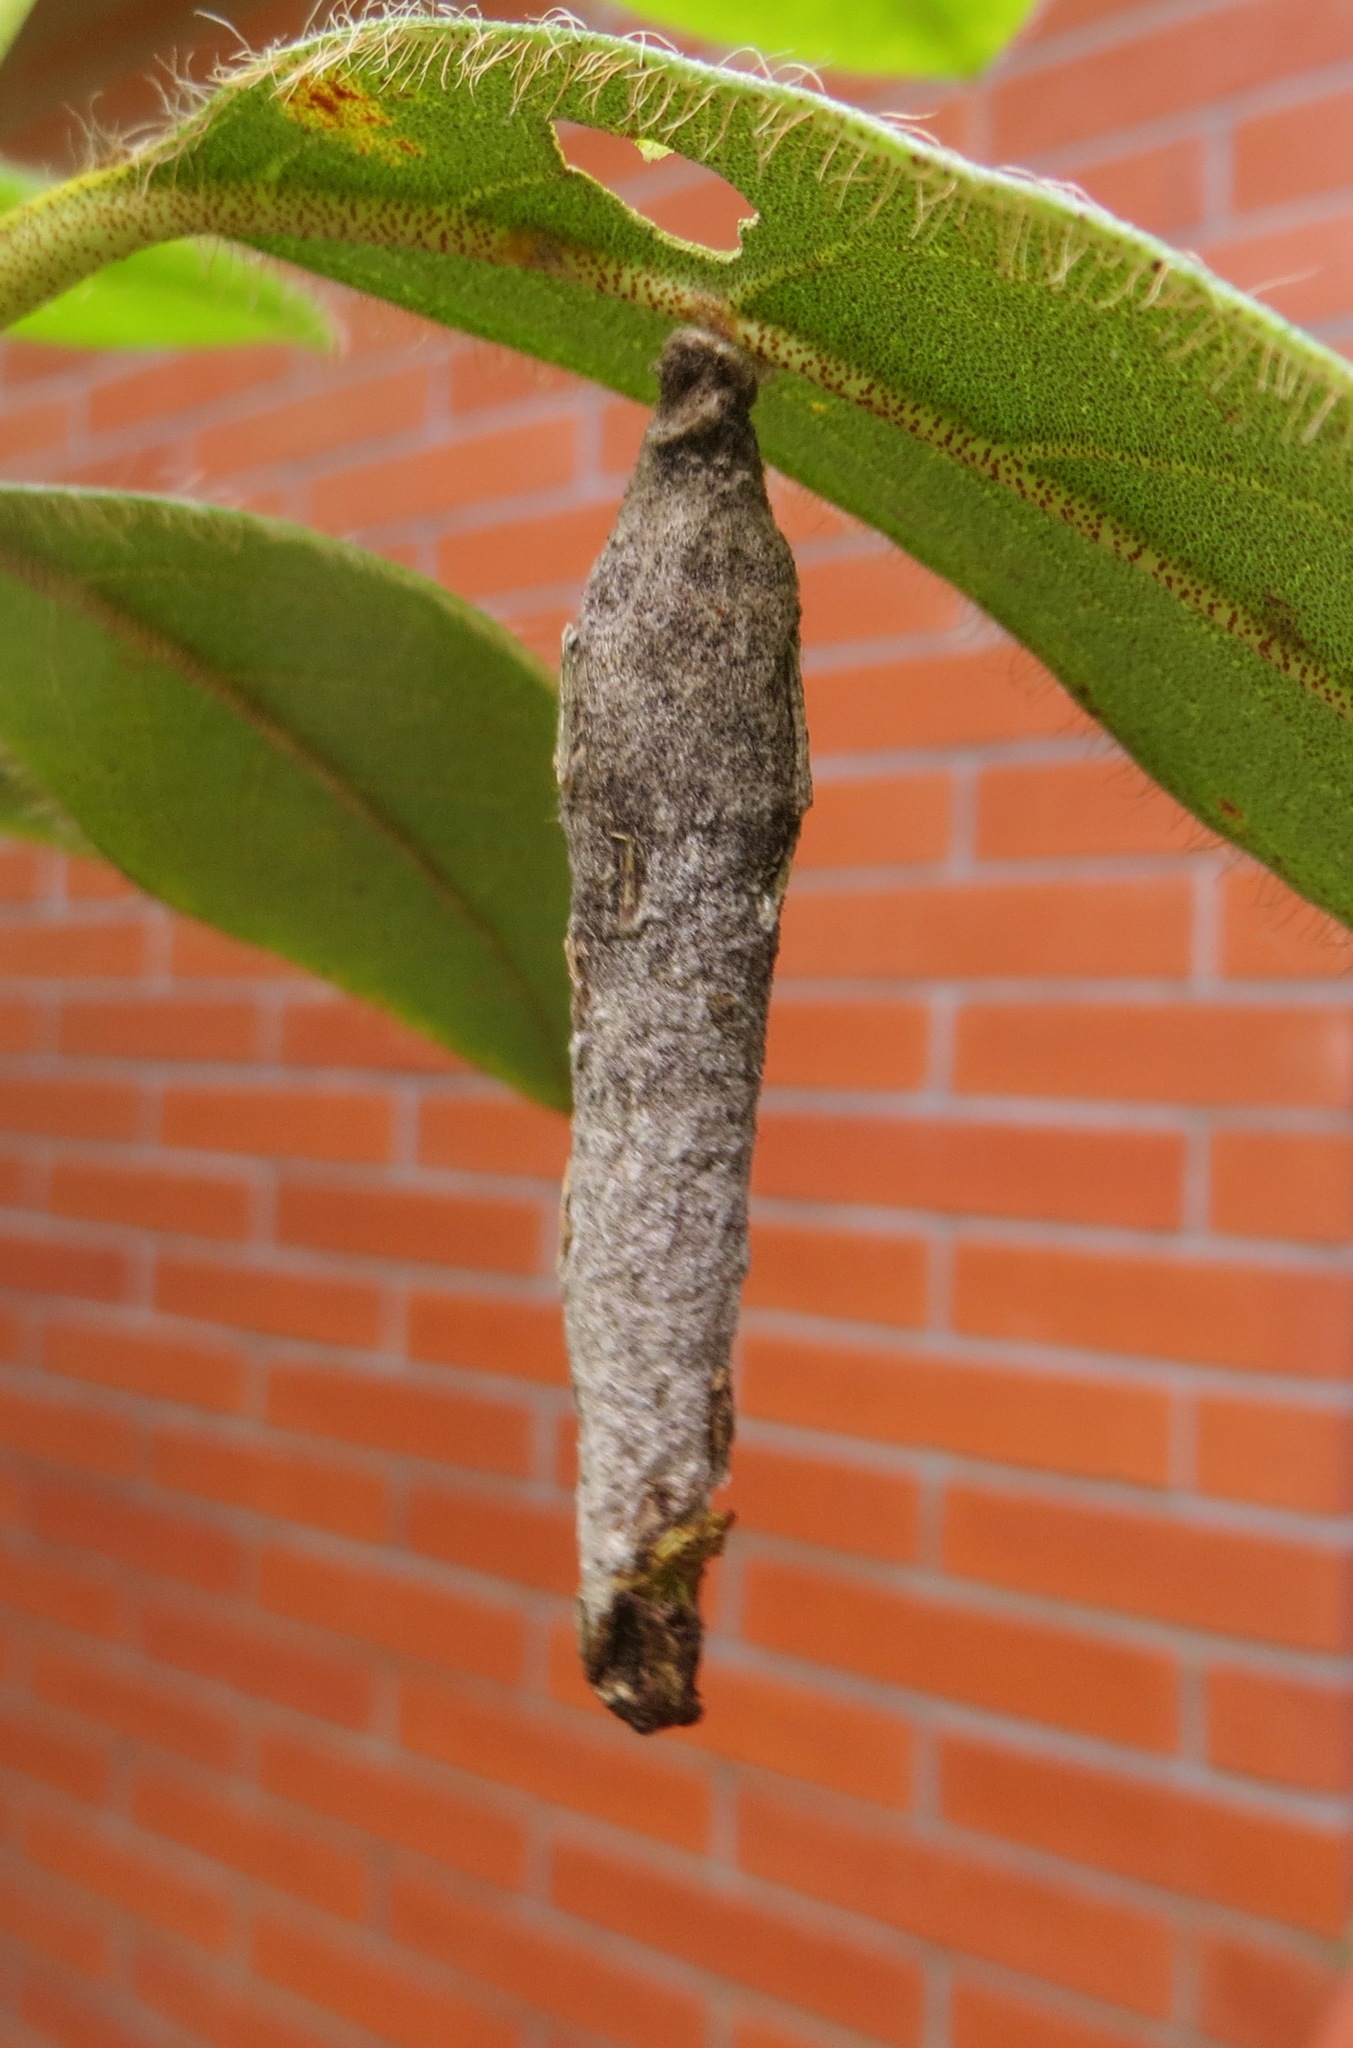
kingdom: Animalia
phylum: Arthropoda
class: Insecta
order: Lepidoptera
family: Psychidae
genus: Liothula
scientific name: Liothula omnivora
